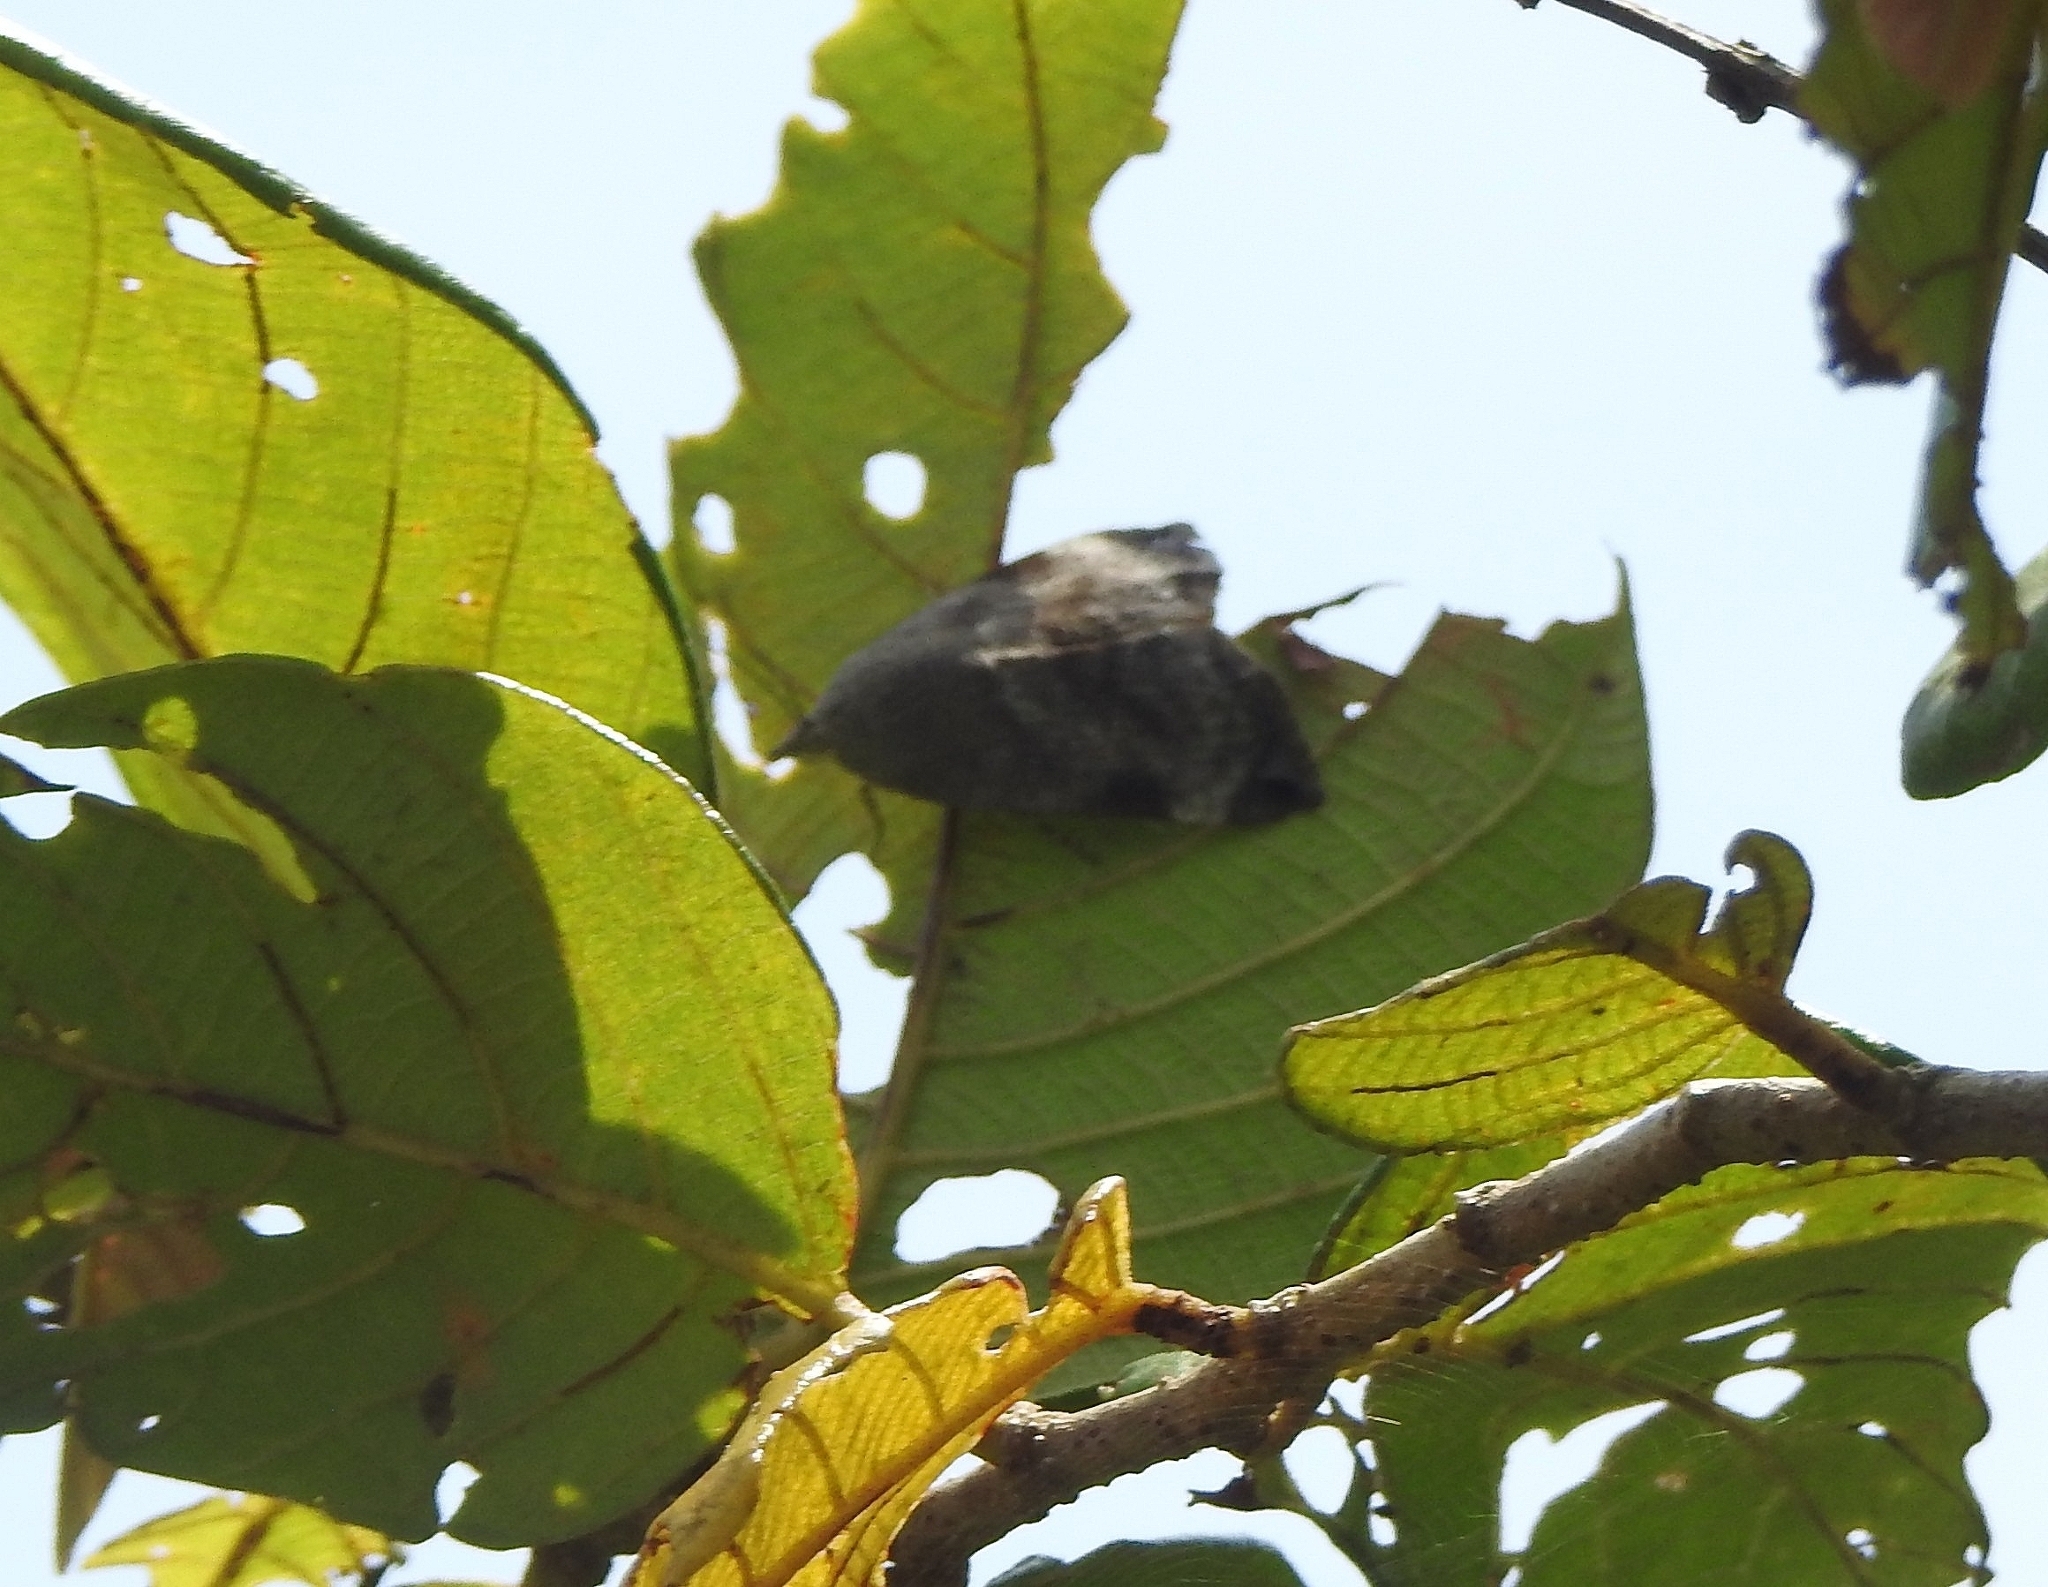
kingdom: Animalia
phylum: Arthropoda
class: Insecta
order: Lepidoptera
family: Hyblaeidae
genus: Hyblaea
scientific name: Hyblaea puera
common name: Teak defoliator moth
